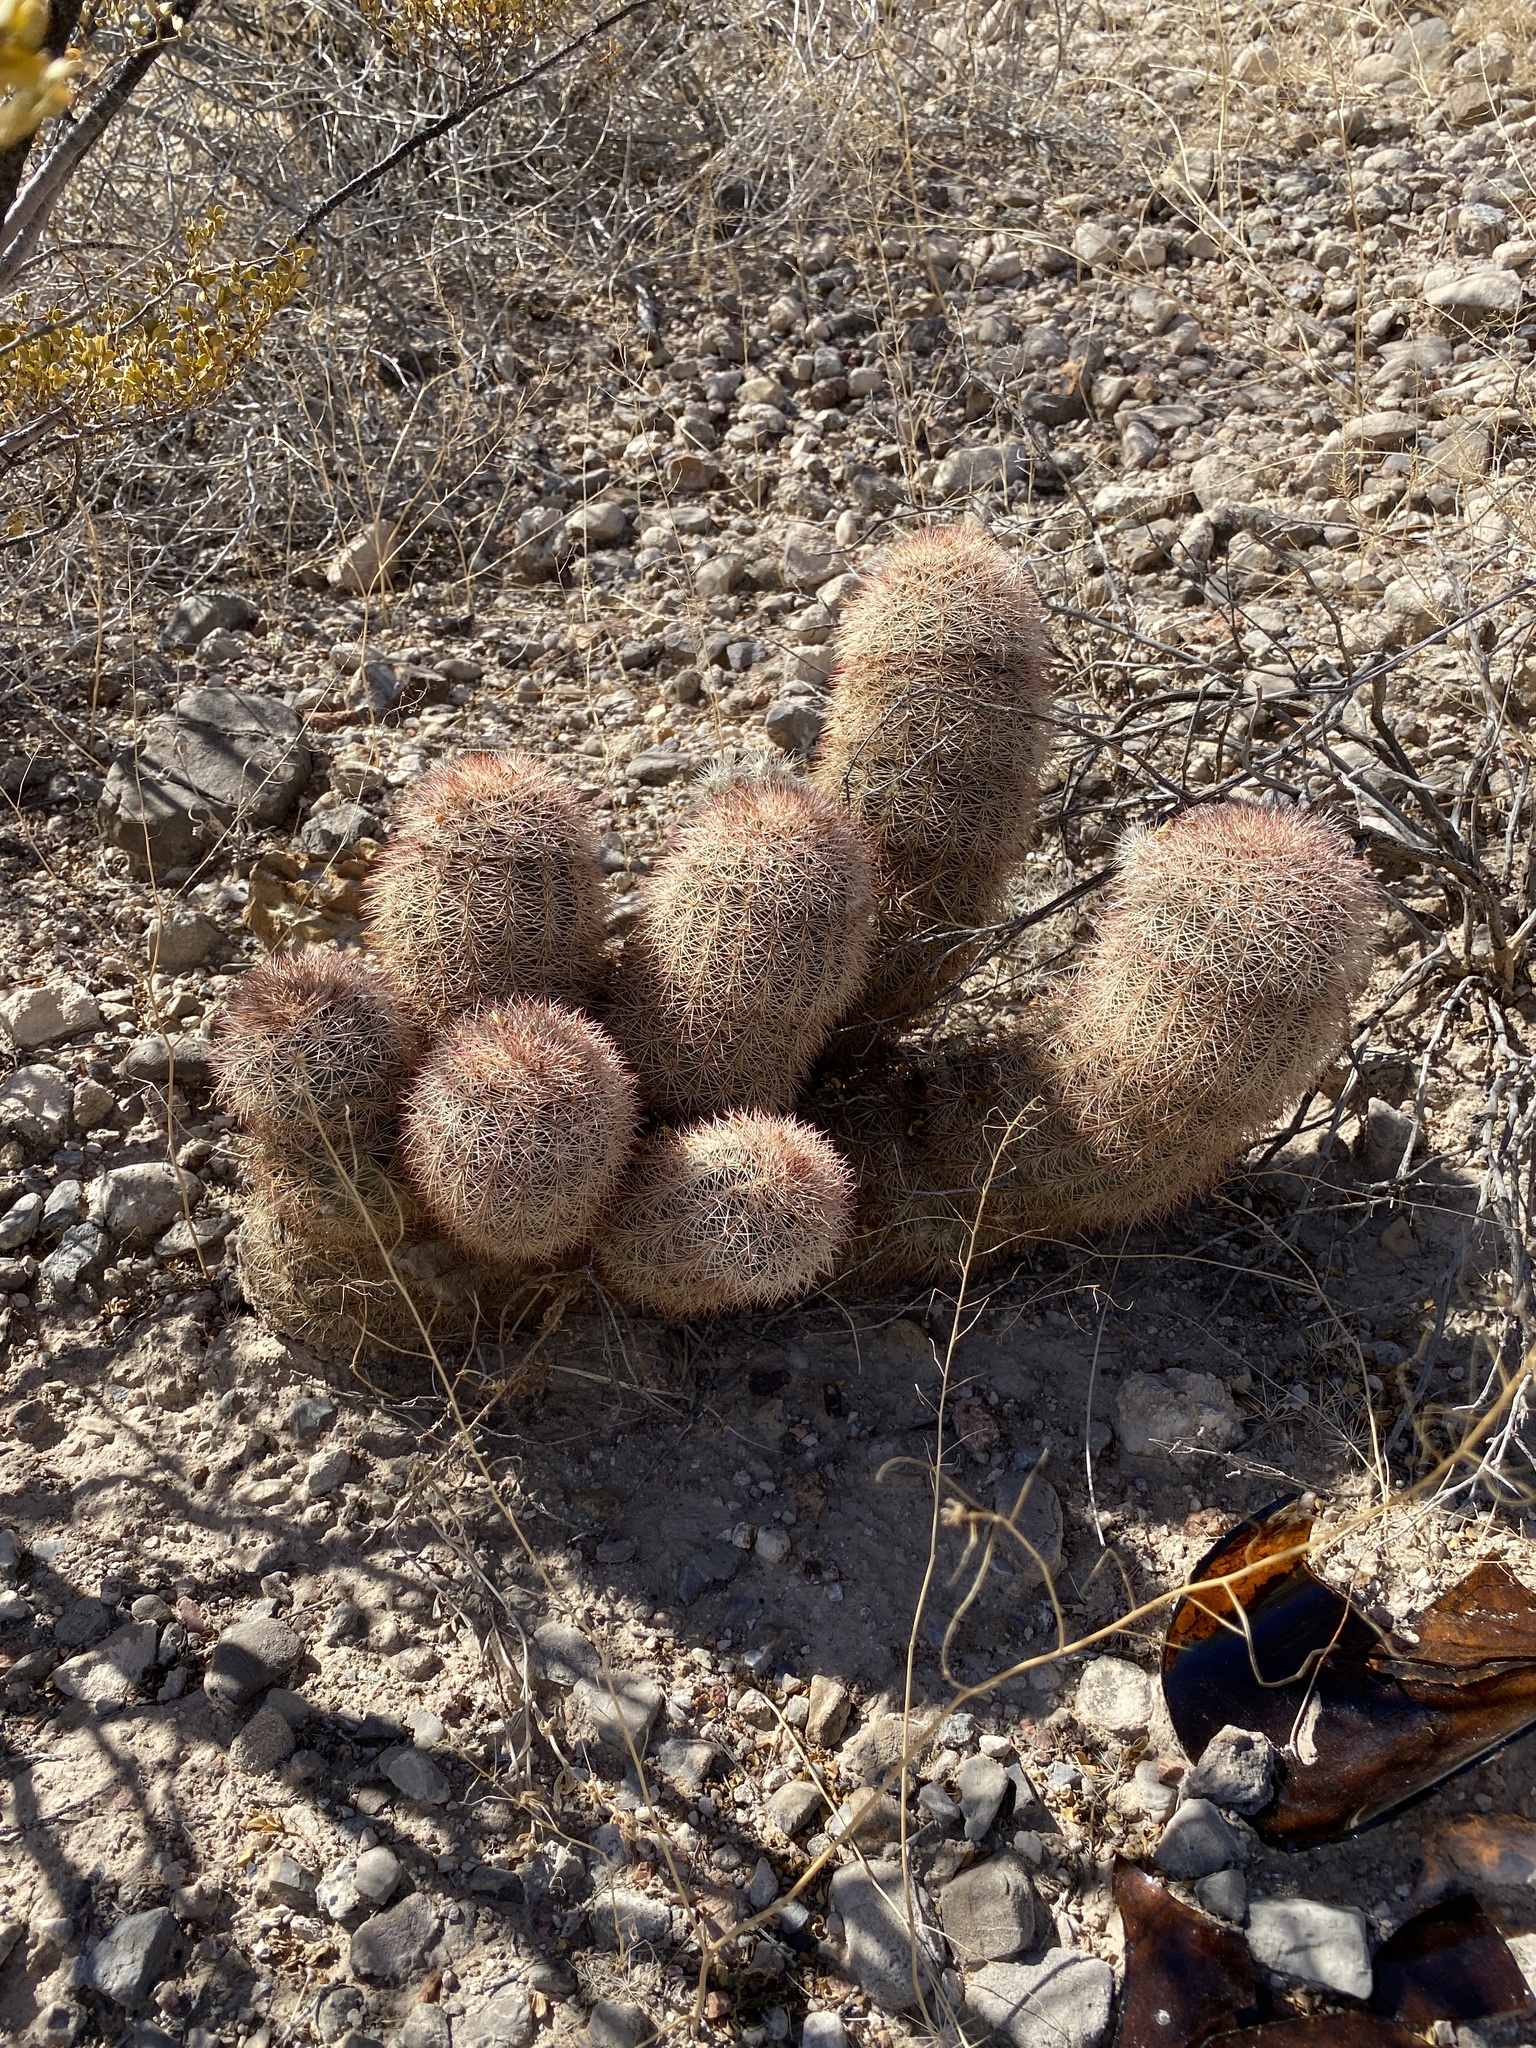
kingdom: Plantae
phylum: Tracheophyta
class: Magnoliopsida
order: Caryophyllales
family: Cactaceae
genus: Echinocereus
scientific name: Echinocereus dasyacanthus
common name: Spiny hedgehog cactus
